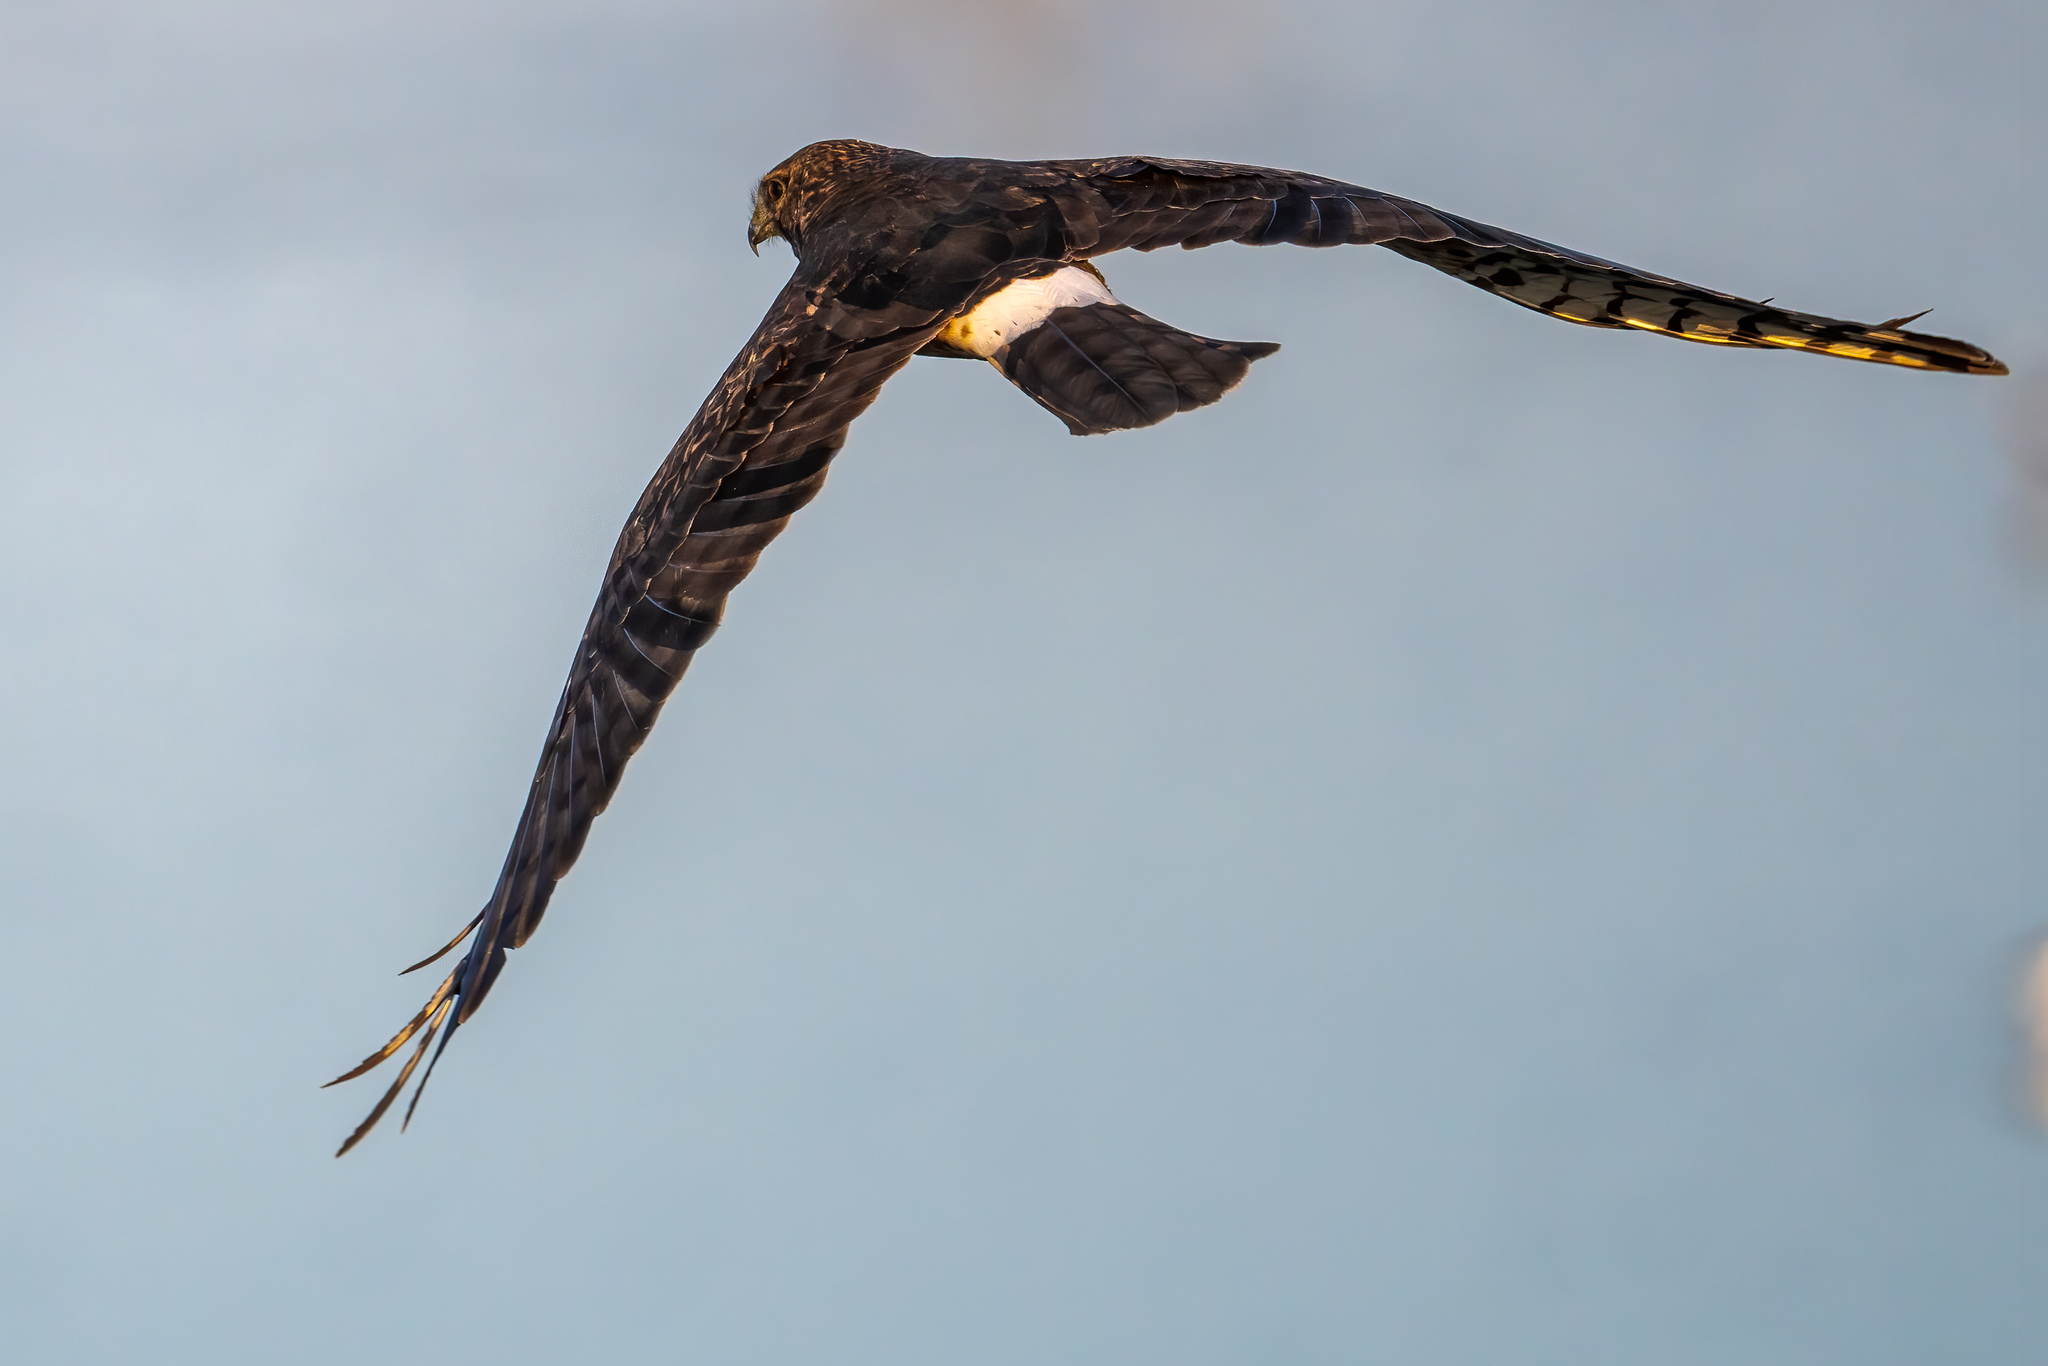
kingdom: Animalia
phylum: Chordata
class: Aves
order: Accipitriformes
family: Accipitridae
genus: Circus
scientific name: Circus cyaneus
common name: Hen harrier
